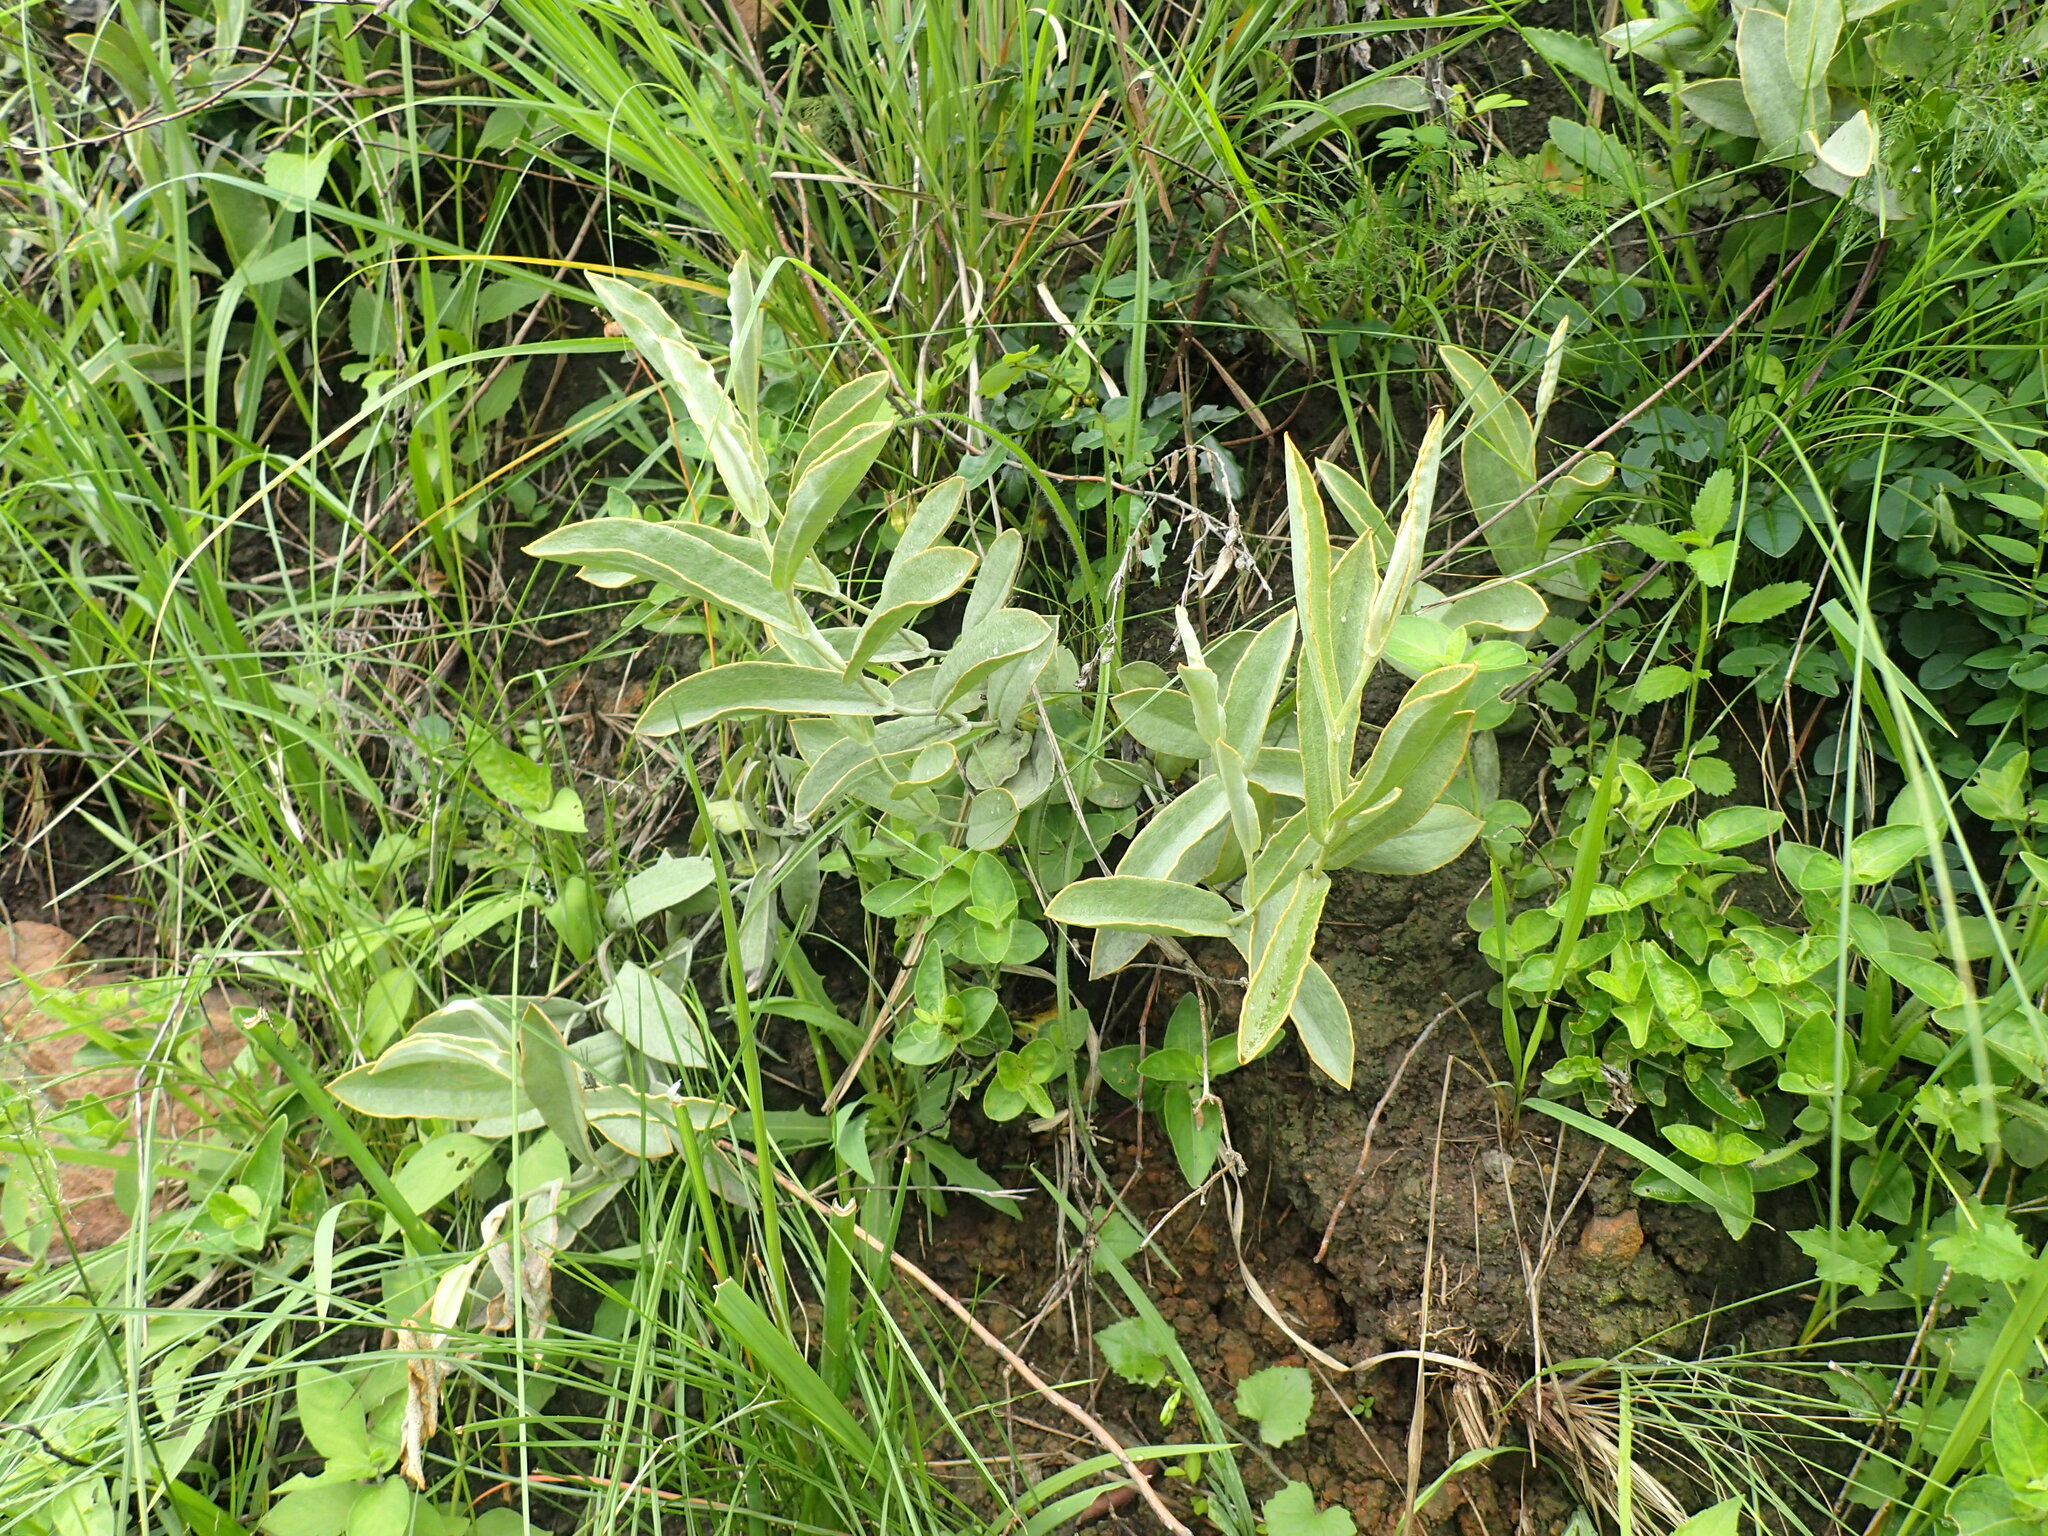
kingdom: Plantae
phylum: Tracheophyta
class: Magnoliopsida
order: Asterales
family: Asteraceae
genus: Helichrysum
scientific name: Helichrysum pannosum
